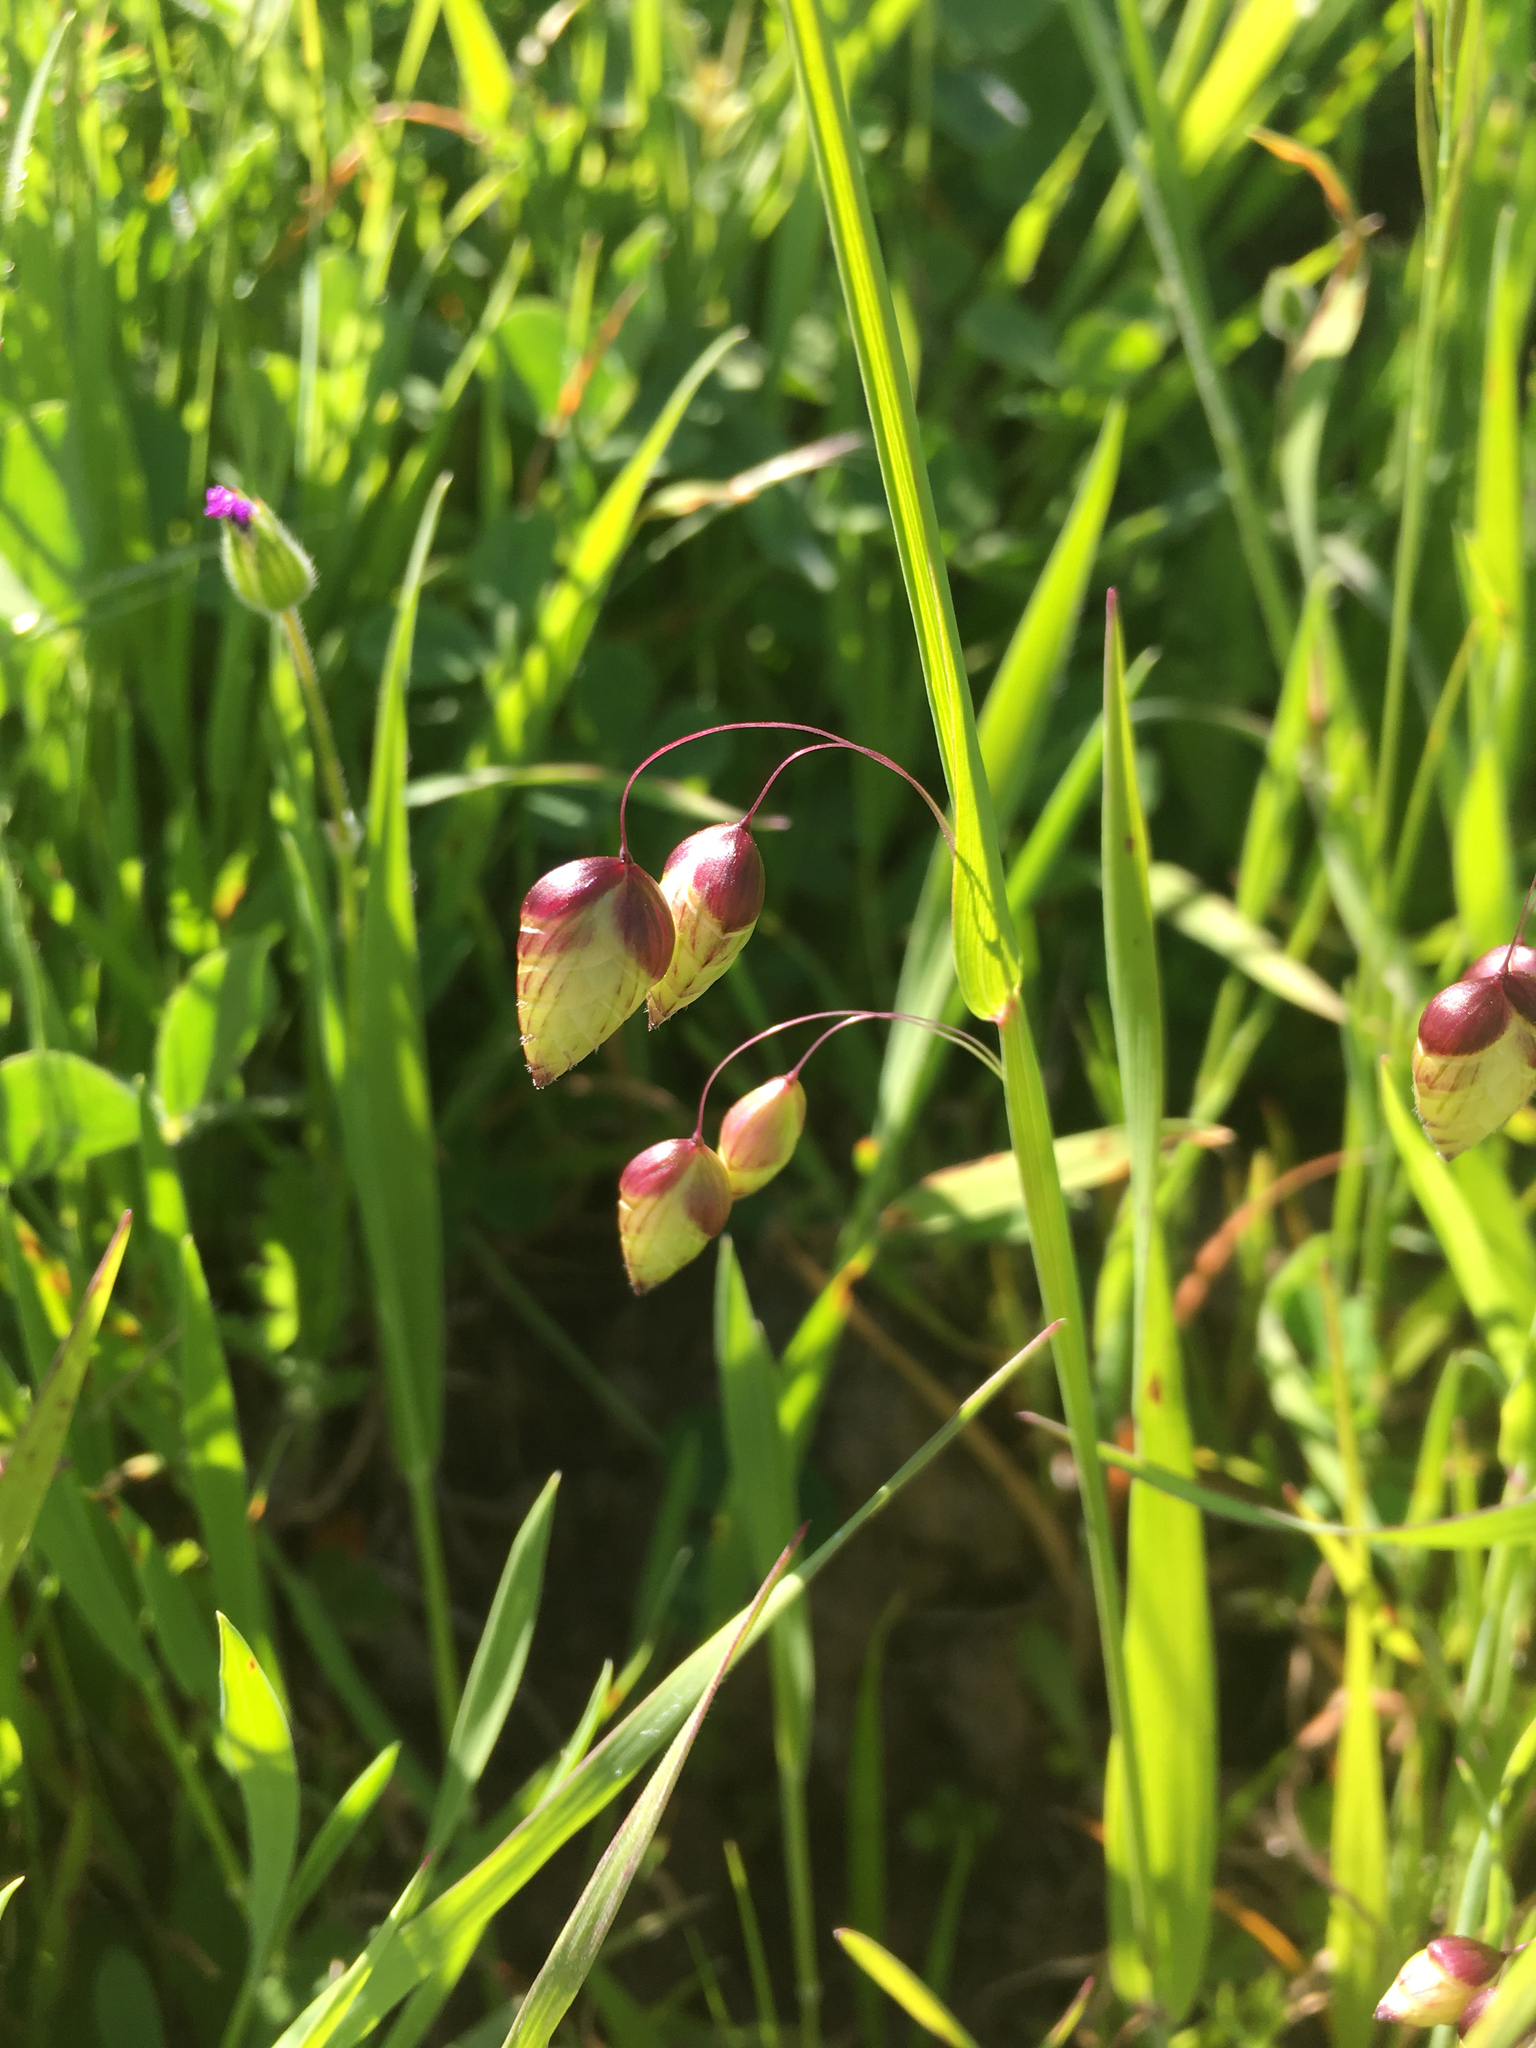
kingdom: Plantae
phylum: Tracheophyta
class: Liliopsida
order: Poales
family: Poaceae
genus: Briza
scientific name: Briza maxima
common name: Big quakinggrass
